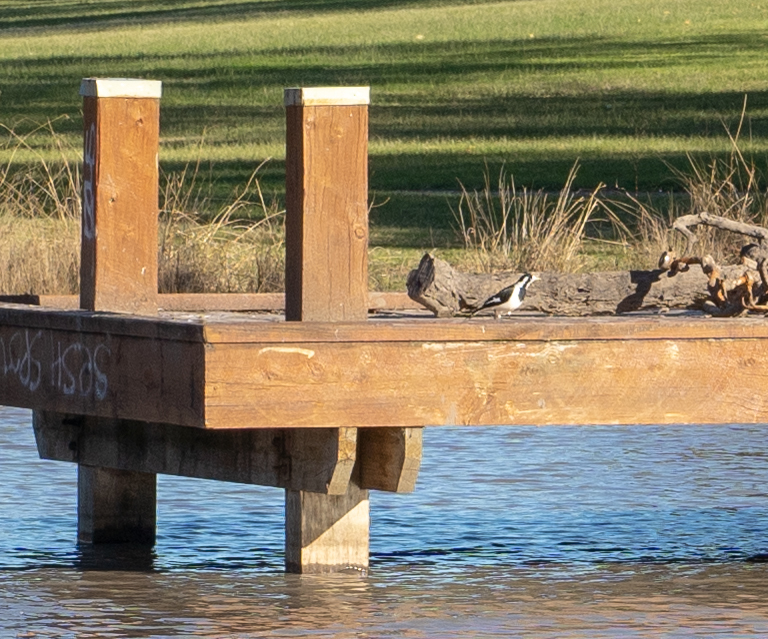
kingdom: Animalia
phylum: Chordata
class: Aves
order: Passeriformes
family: Monarchidae
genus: Grallina
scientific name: Grallina cyanoleuca
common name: Magpie-lark
